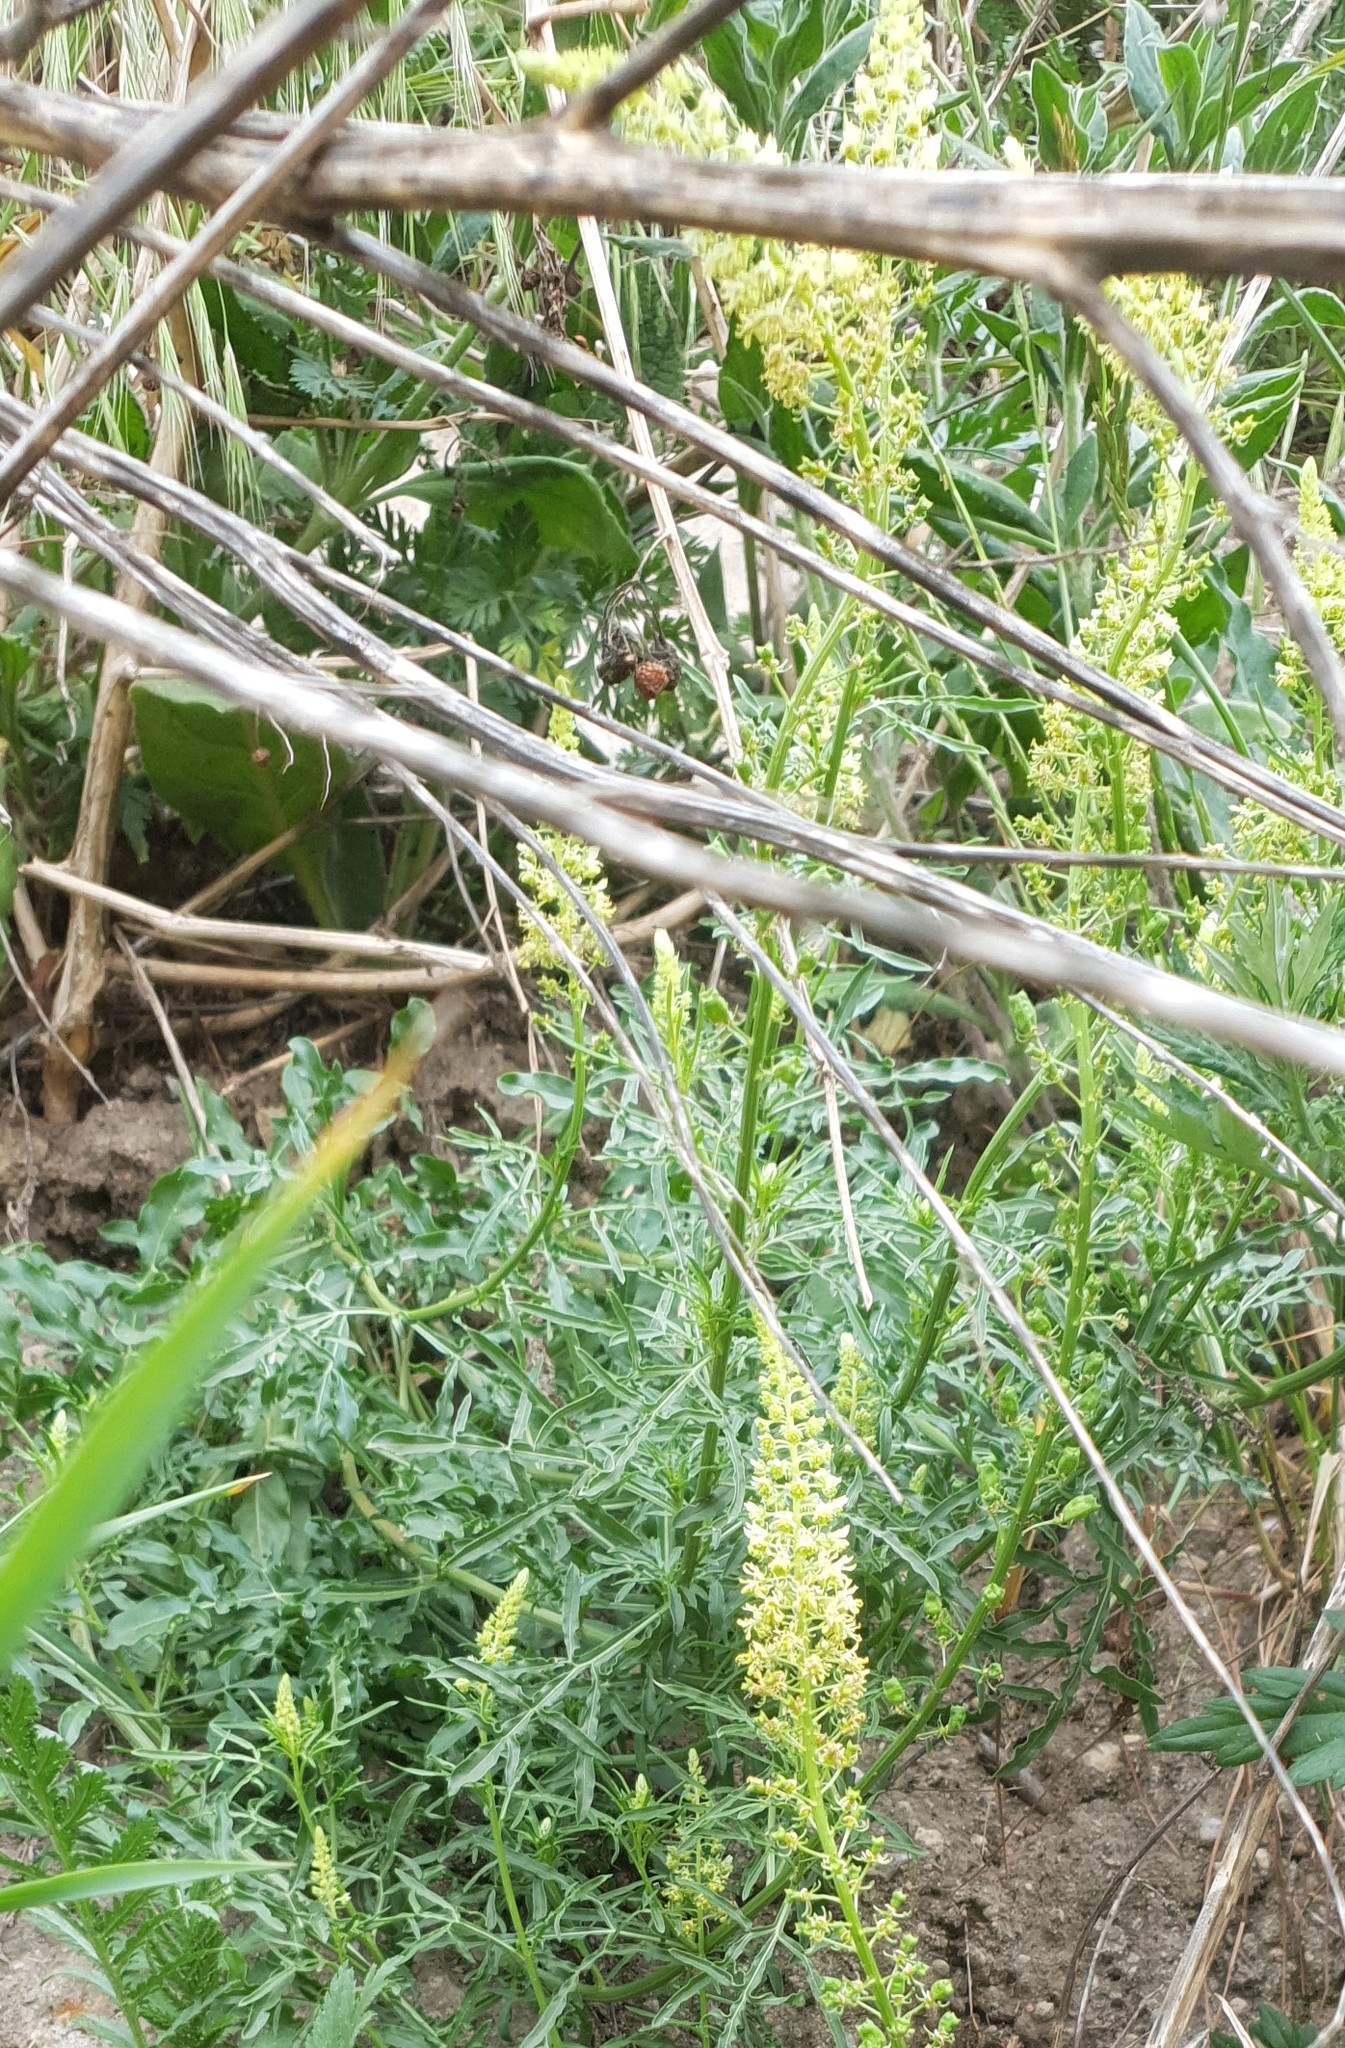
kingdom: Plantae
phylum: Tracheophyta
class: Magnoliopsida
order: Brassicales
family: Resedaceae
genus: Reseda
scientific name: Reseda lutea
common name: Wild mignonette
